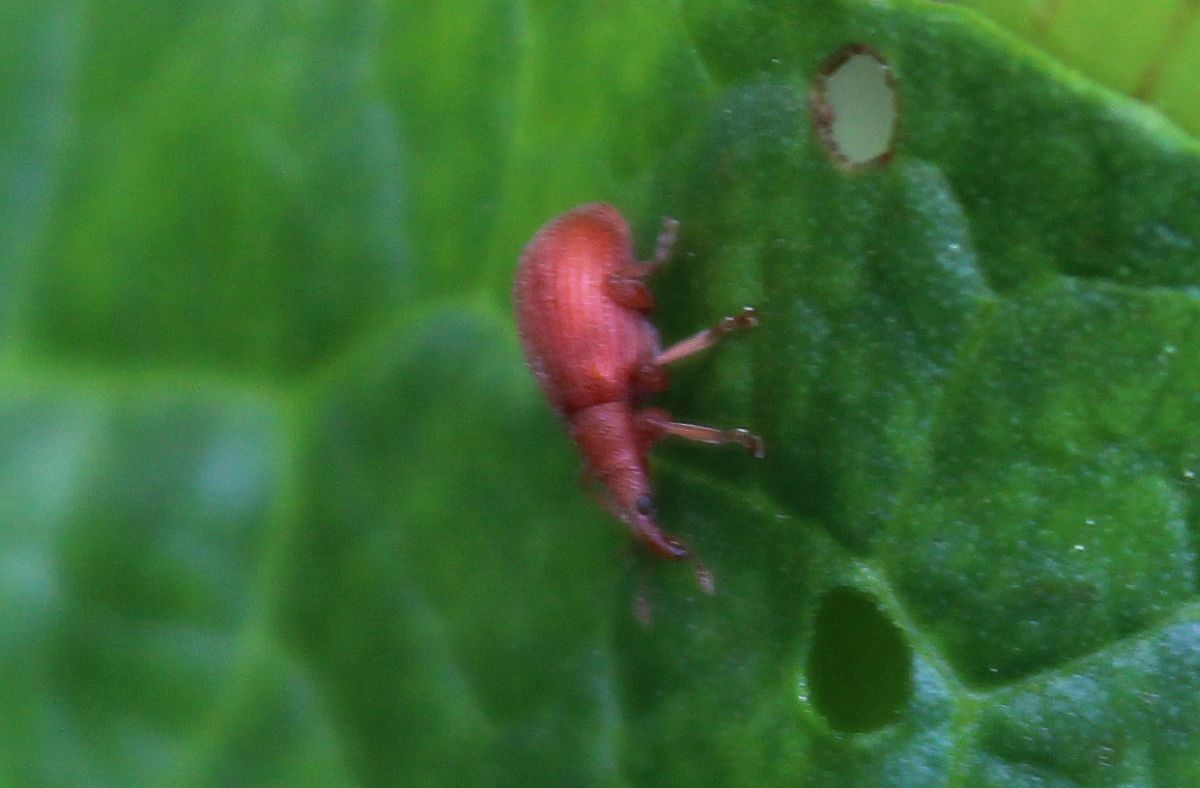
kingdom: Animalia
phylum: Arthropoda
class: Insecta
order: Coleoptera
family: Apionidae
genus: Apion
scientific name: Apion frumentarium
